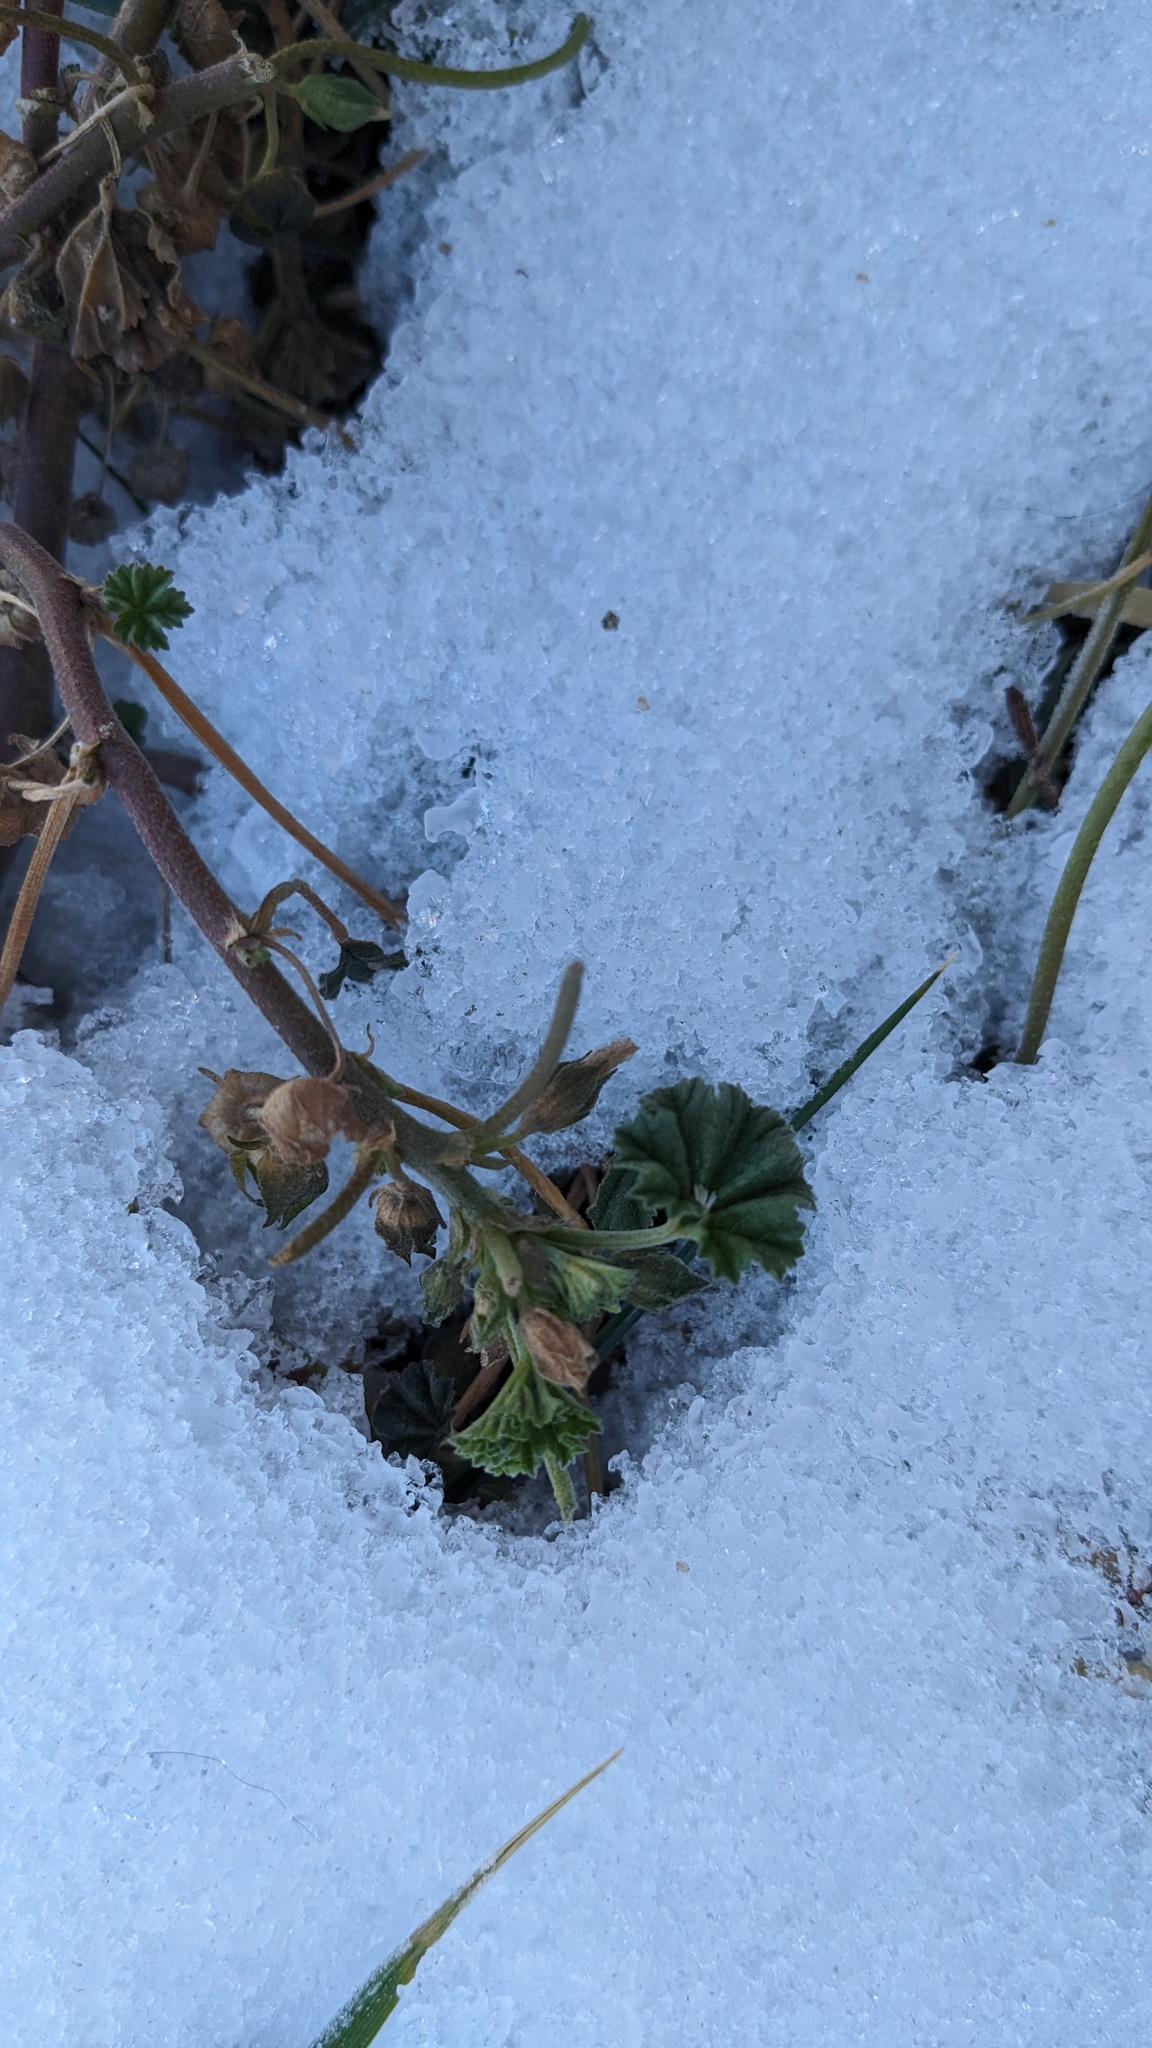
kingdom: Plantae
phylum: Tracheophyta
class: Magnoliopsida
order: Malvales
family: Malvaceae
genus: Malva
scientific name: Malva neglecta
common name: Common mallow
